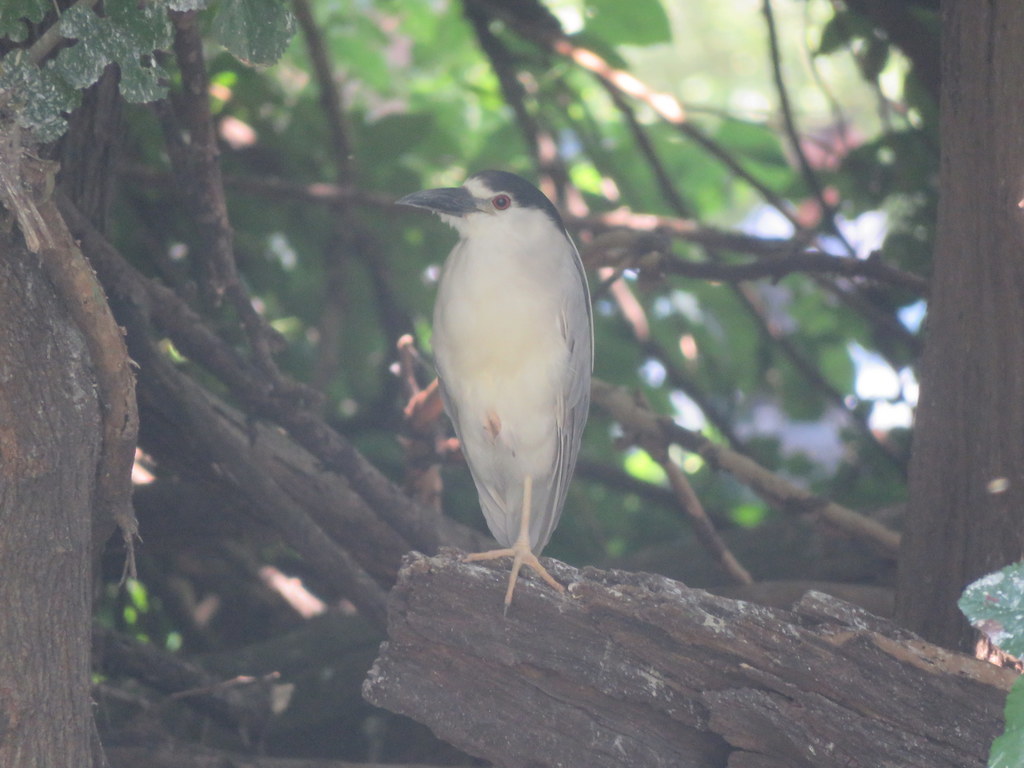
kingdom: Animalia
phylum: Chordata
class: Aves
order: Pelecaniformes
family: Ardeidae
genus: Nycticorax
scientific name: Nycticorax nycticorax
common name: Black-crowned night heron
